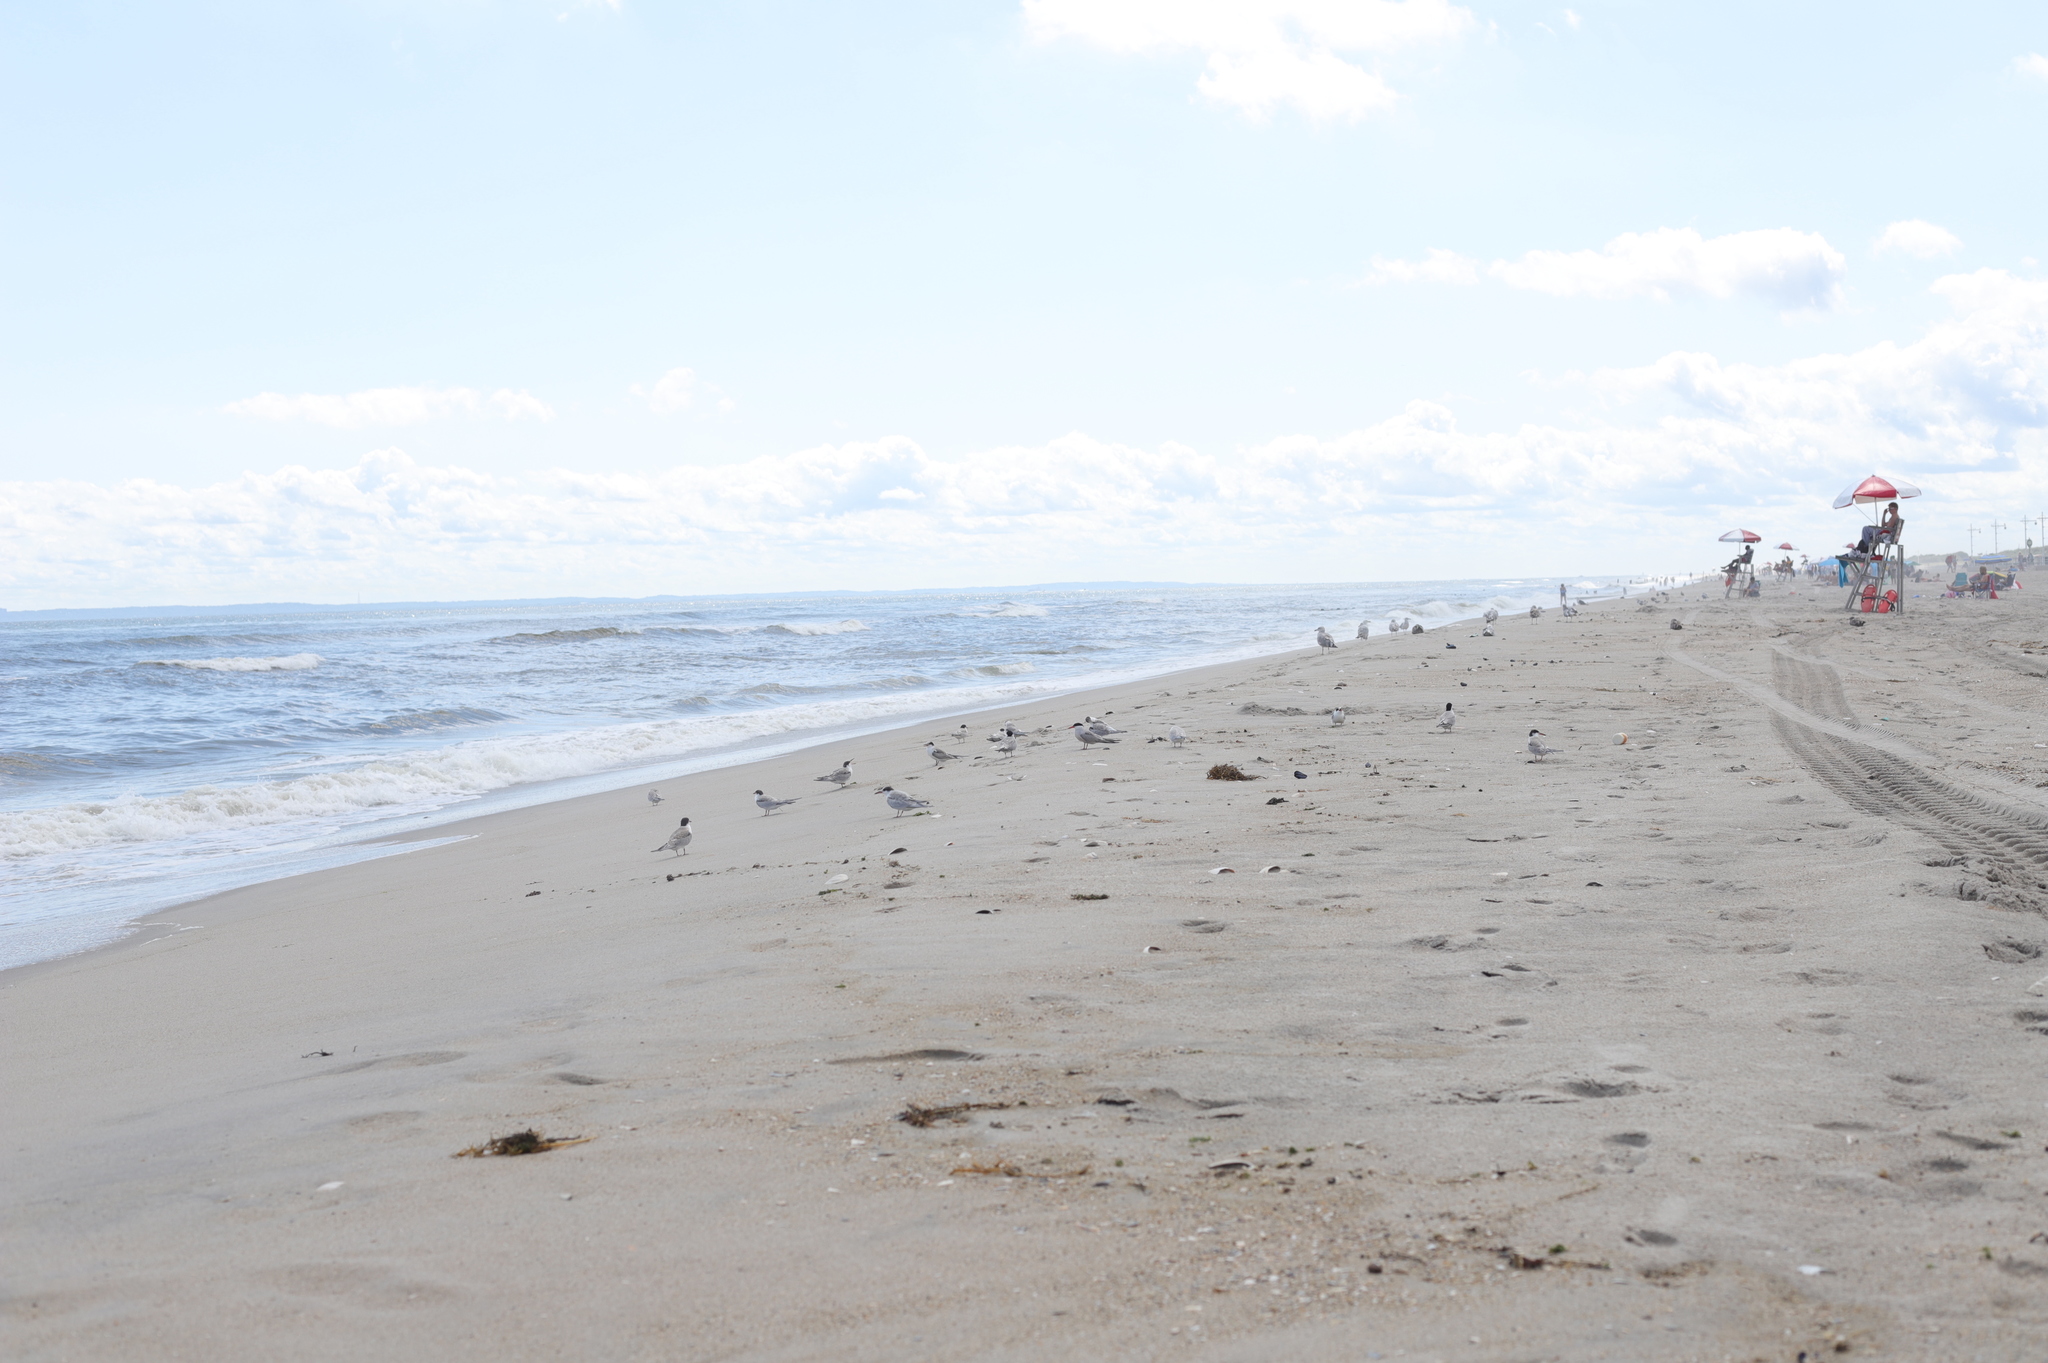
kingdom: Animalia
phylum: Chordata
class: Aves
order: Charadriiformes
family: Laridae
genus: Sterna
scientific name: Sterna hirundo
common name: Common tern
